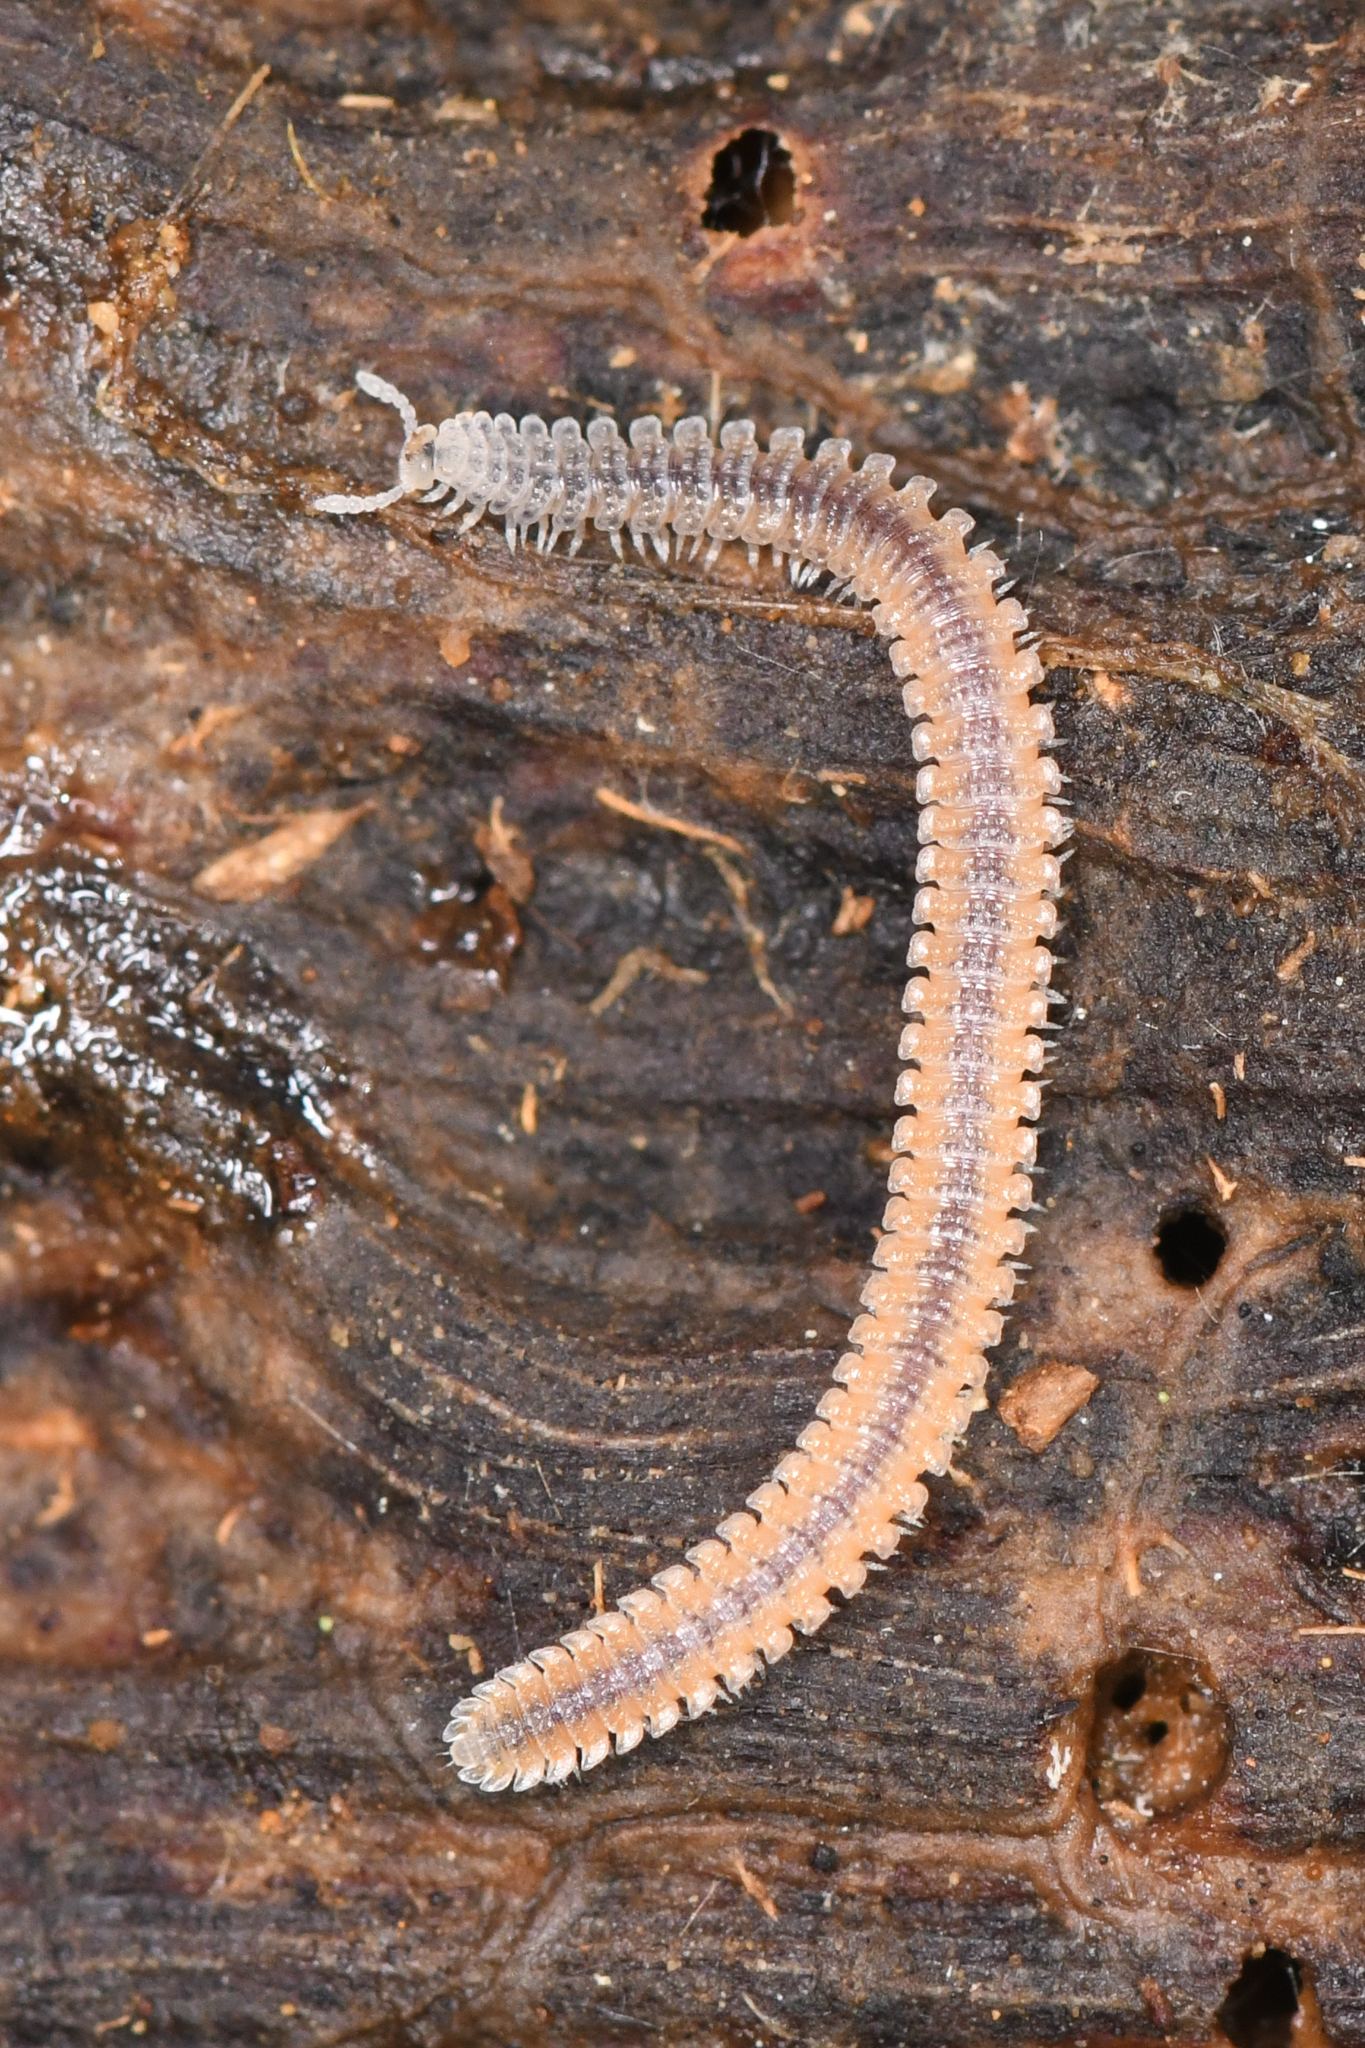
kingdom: Animalia
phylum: Arthropoda
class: Diplopoda
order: Platydesmida
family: Andrognathidae
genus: Gosodesmus
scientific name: Gosodesmus claremontus
